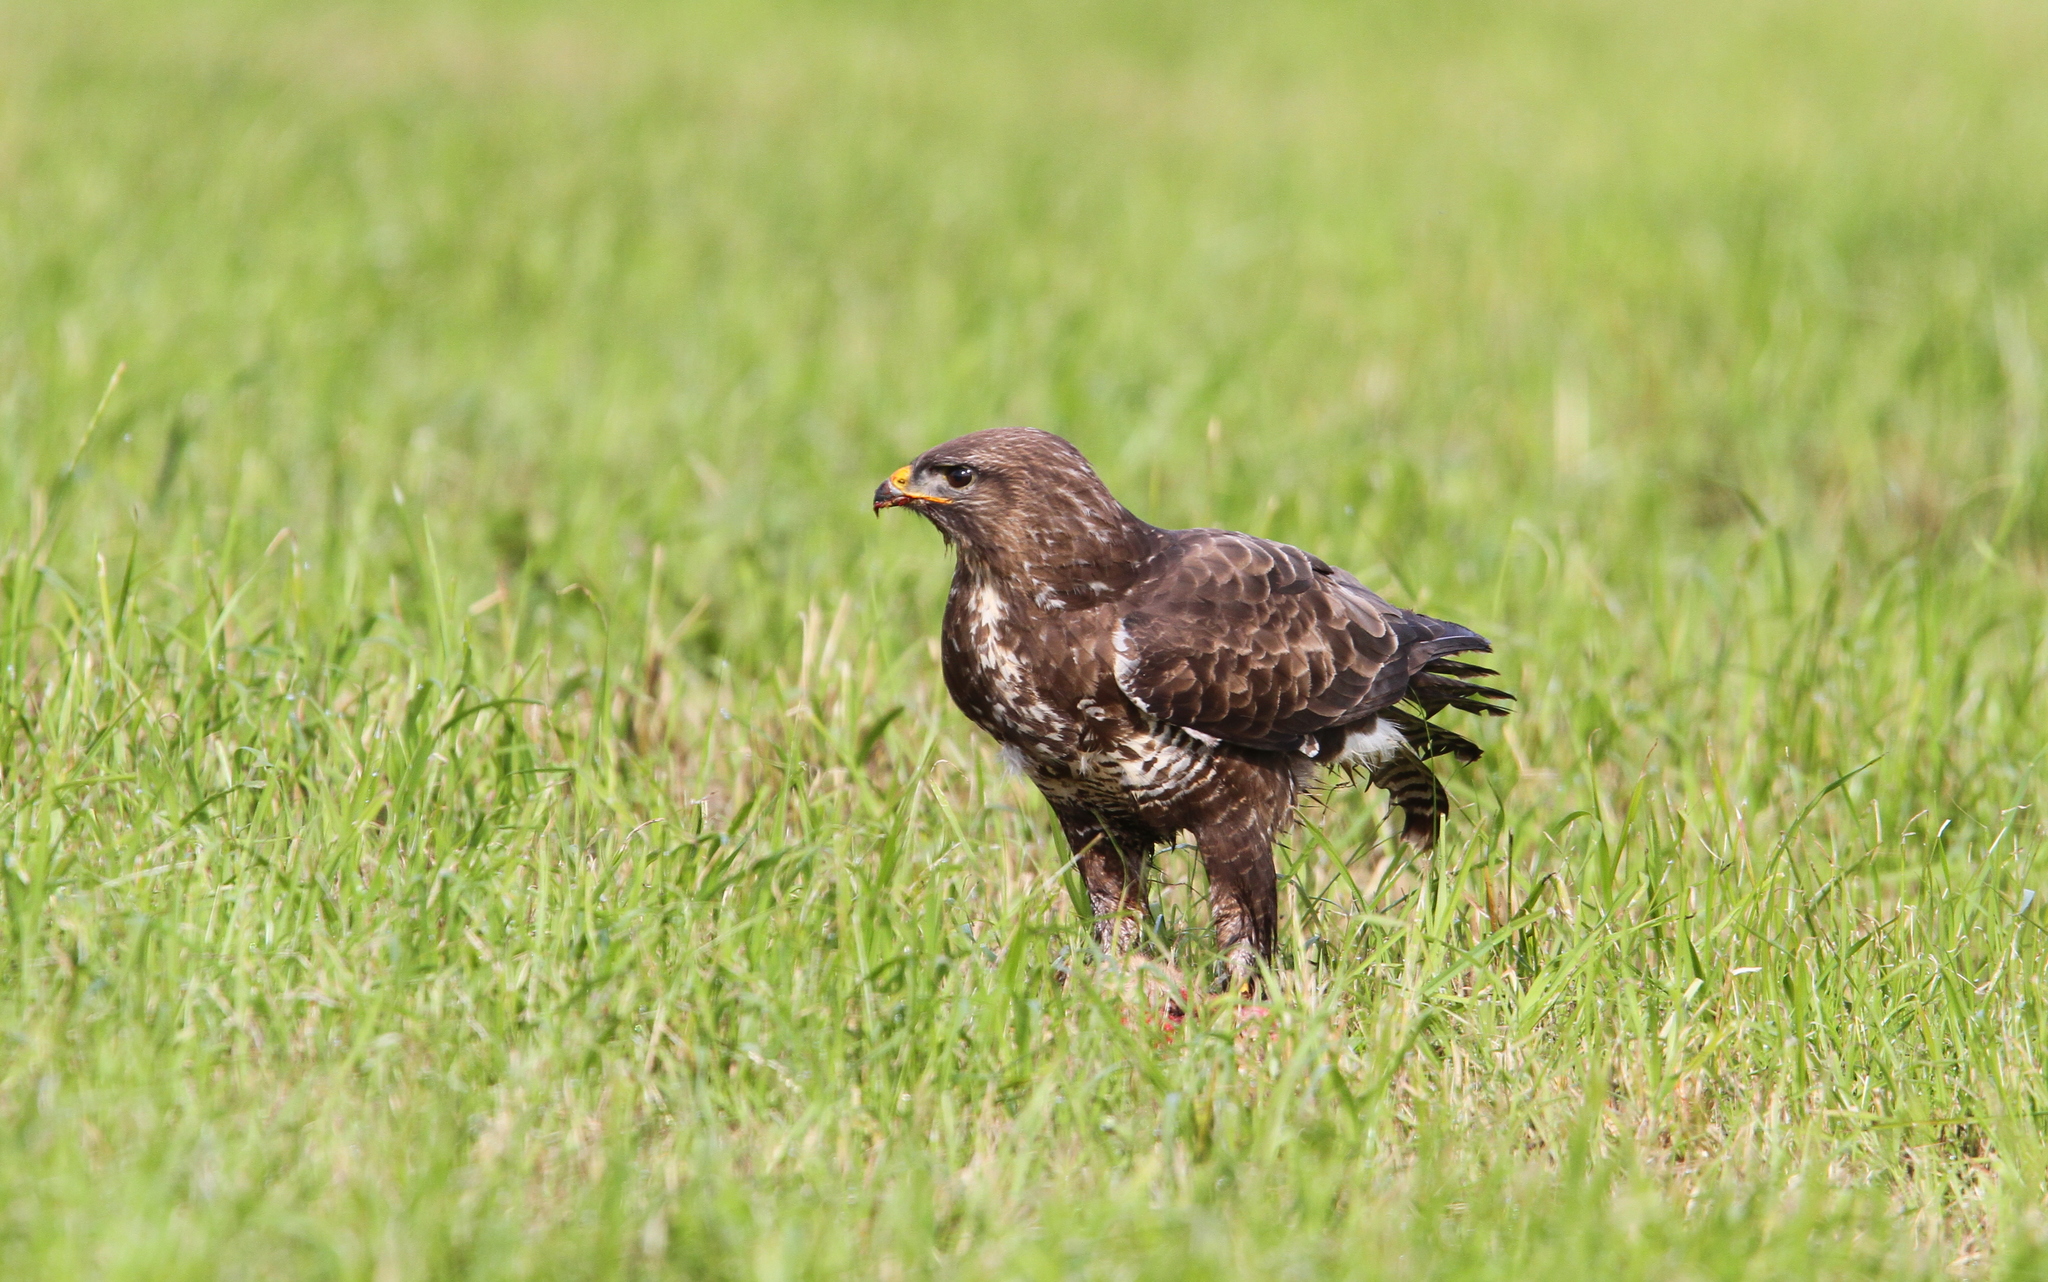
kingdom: Animalia
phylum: Chordata
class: Aves
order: Accipitriformes
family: Accipitridae
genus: Buteo
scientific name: Buteo buteo
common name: Common buzzard
